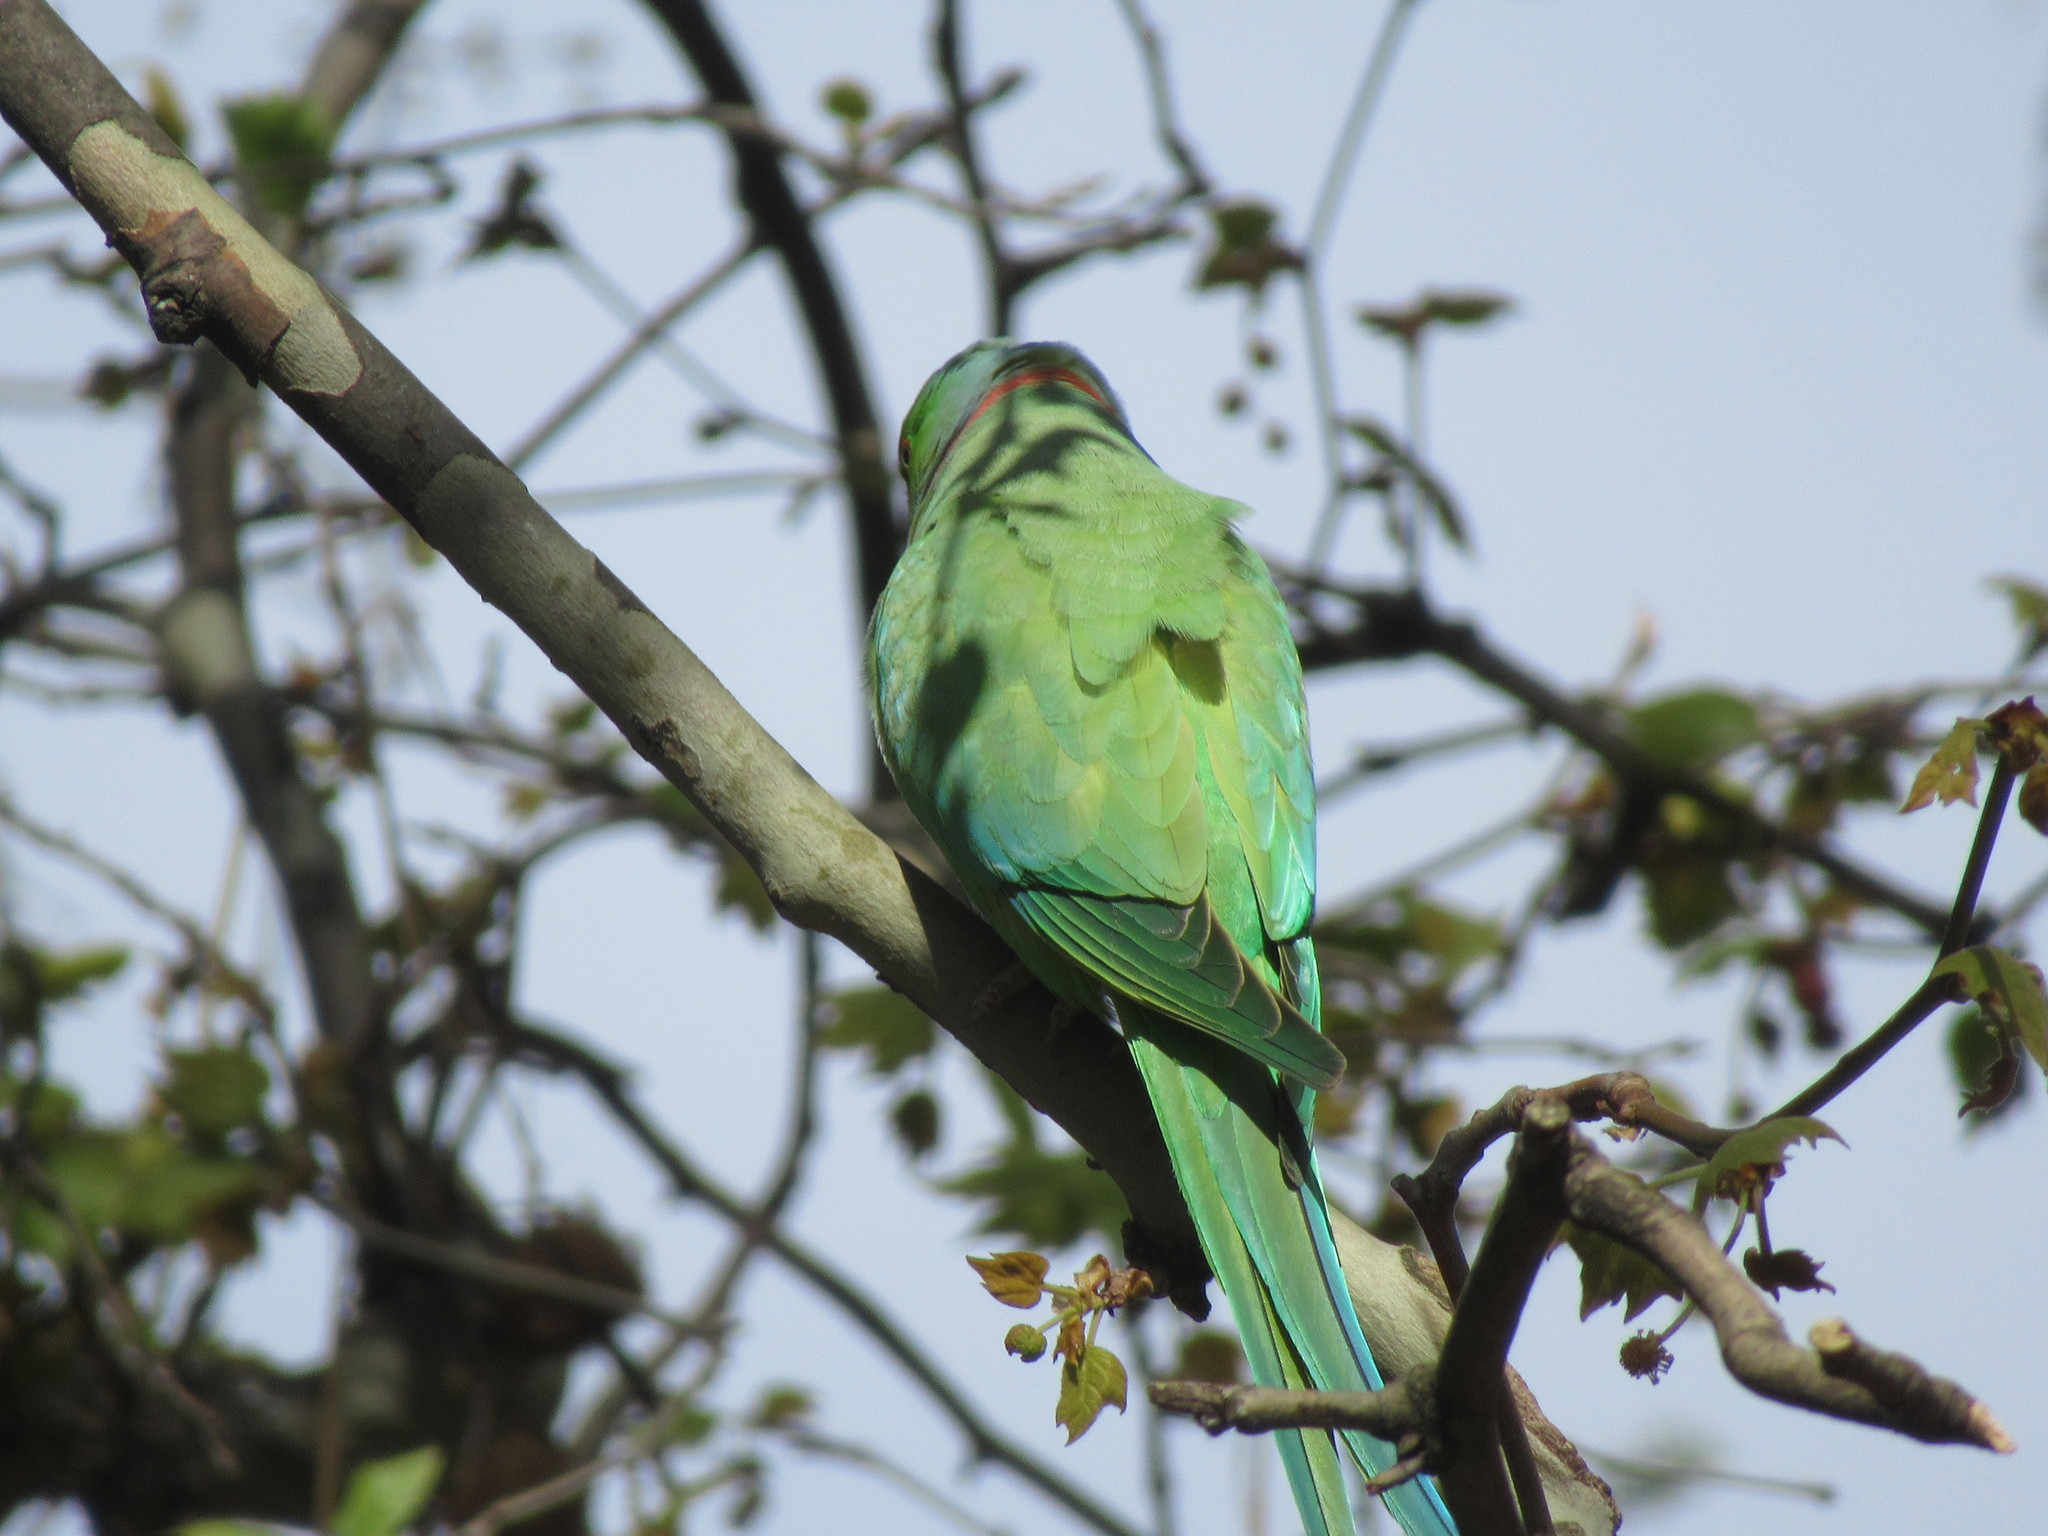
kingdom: Animalia
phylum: Chordata
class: Aves
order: Psittaciformes
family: Psittacidae
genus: Psittacula
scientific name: Psittacula krameri
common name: Rose-ringed parakeet
